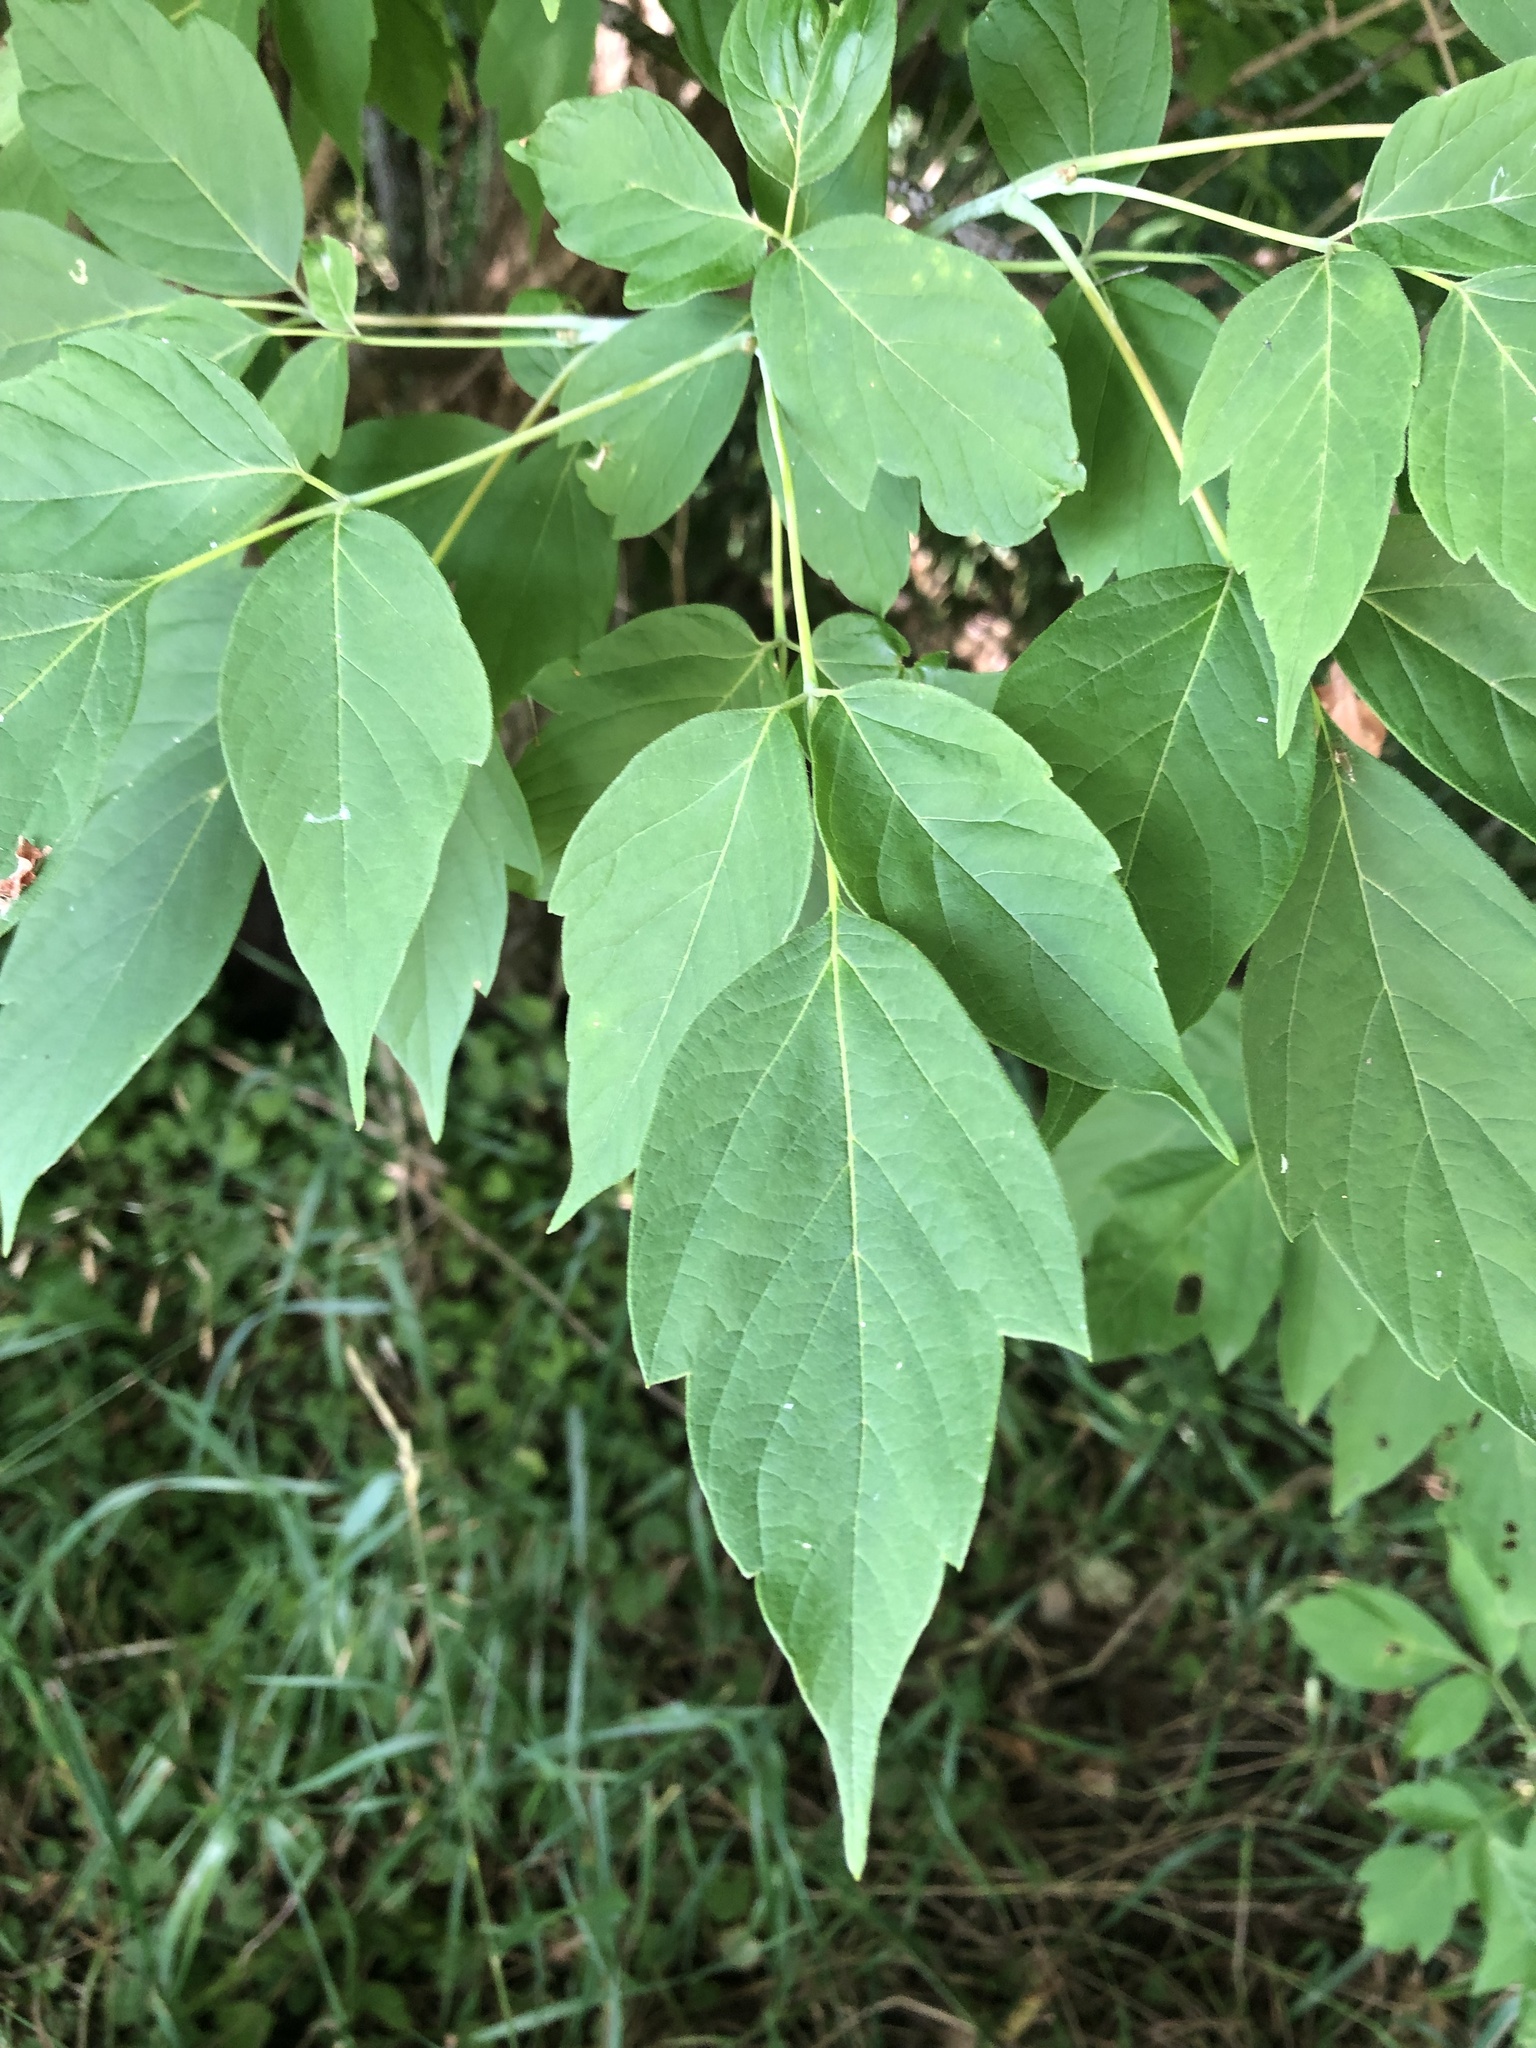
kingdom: Plantae
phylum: Tracheophyta
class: Magnoliopsida
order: Sapindales
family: Sapindaceae
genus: Acer
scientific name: Acer negundo
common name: Ashleaf maple
